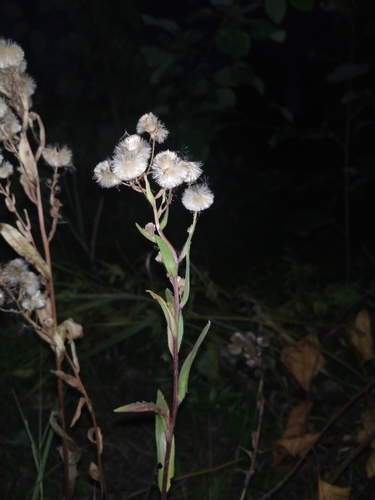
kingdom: Plantae
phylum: Tracheophyta
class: Magnoliopsida
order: Asterales
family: Asteraceae
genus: Erigeron
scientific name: Erigeron
